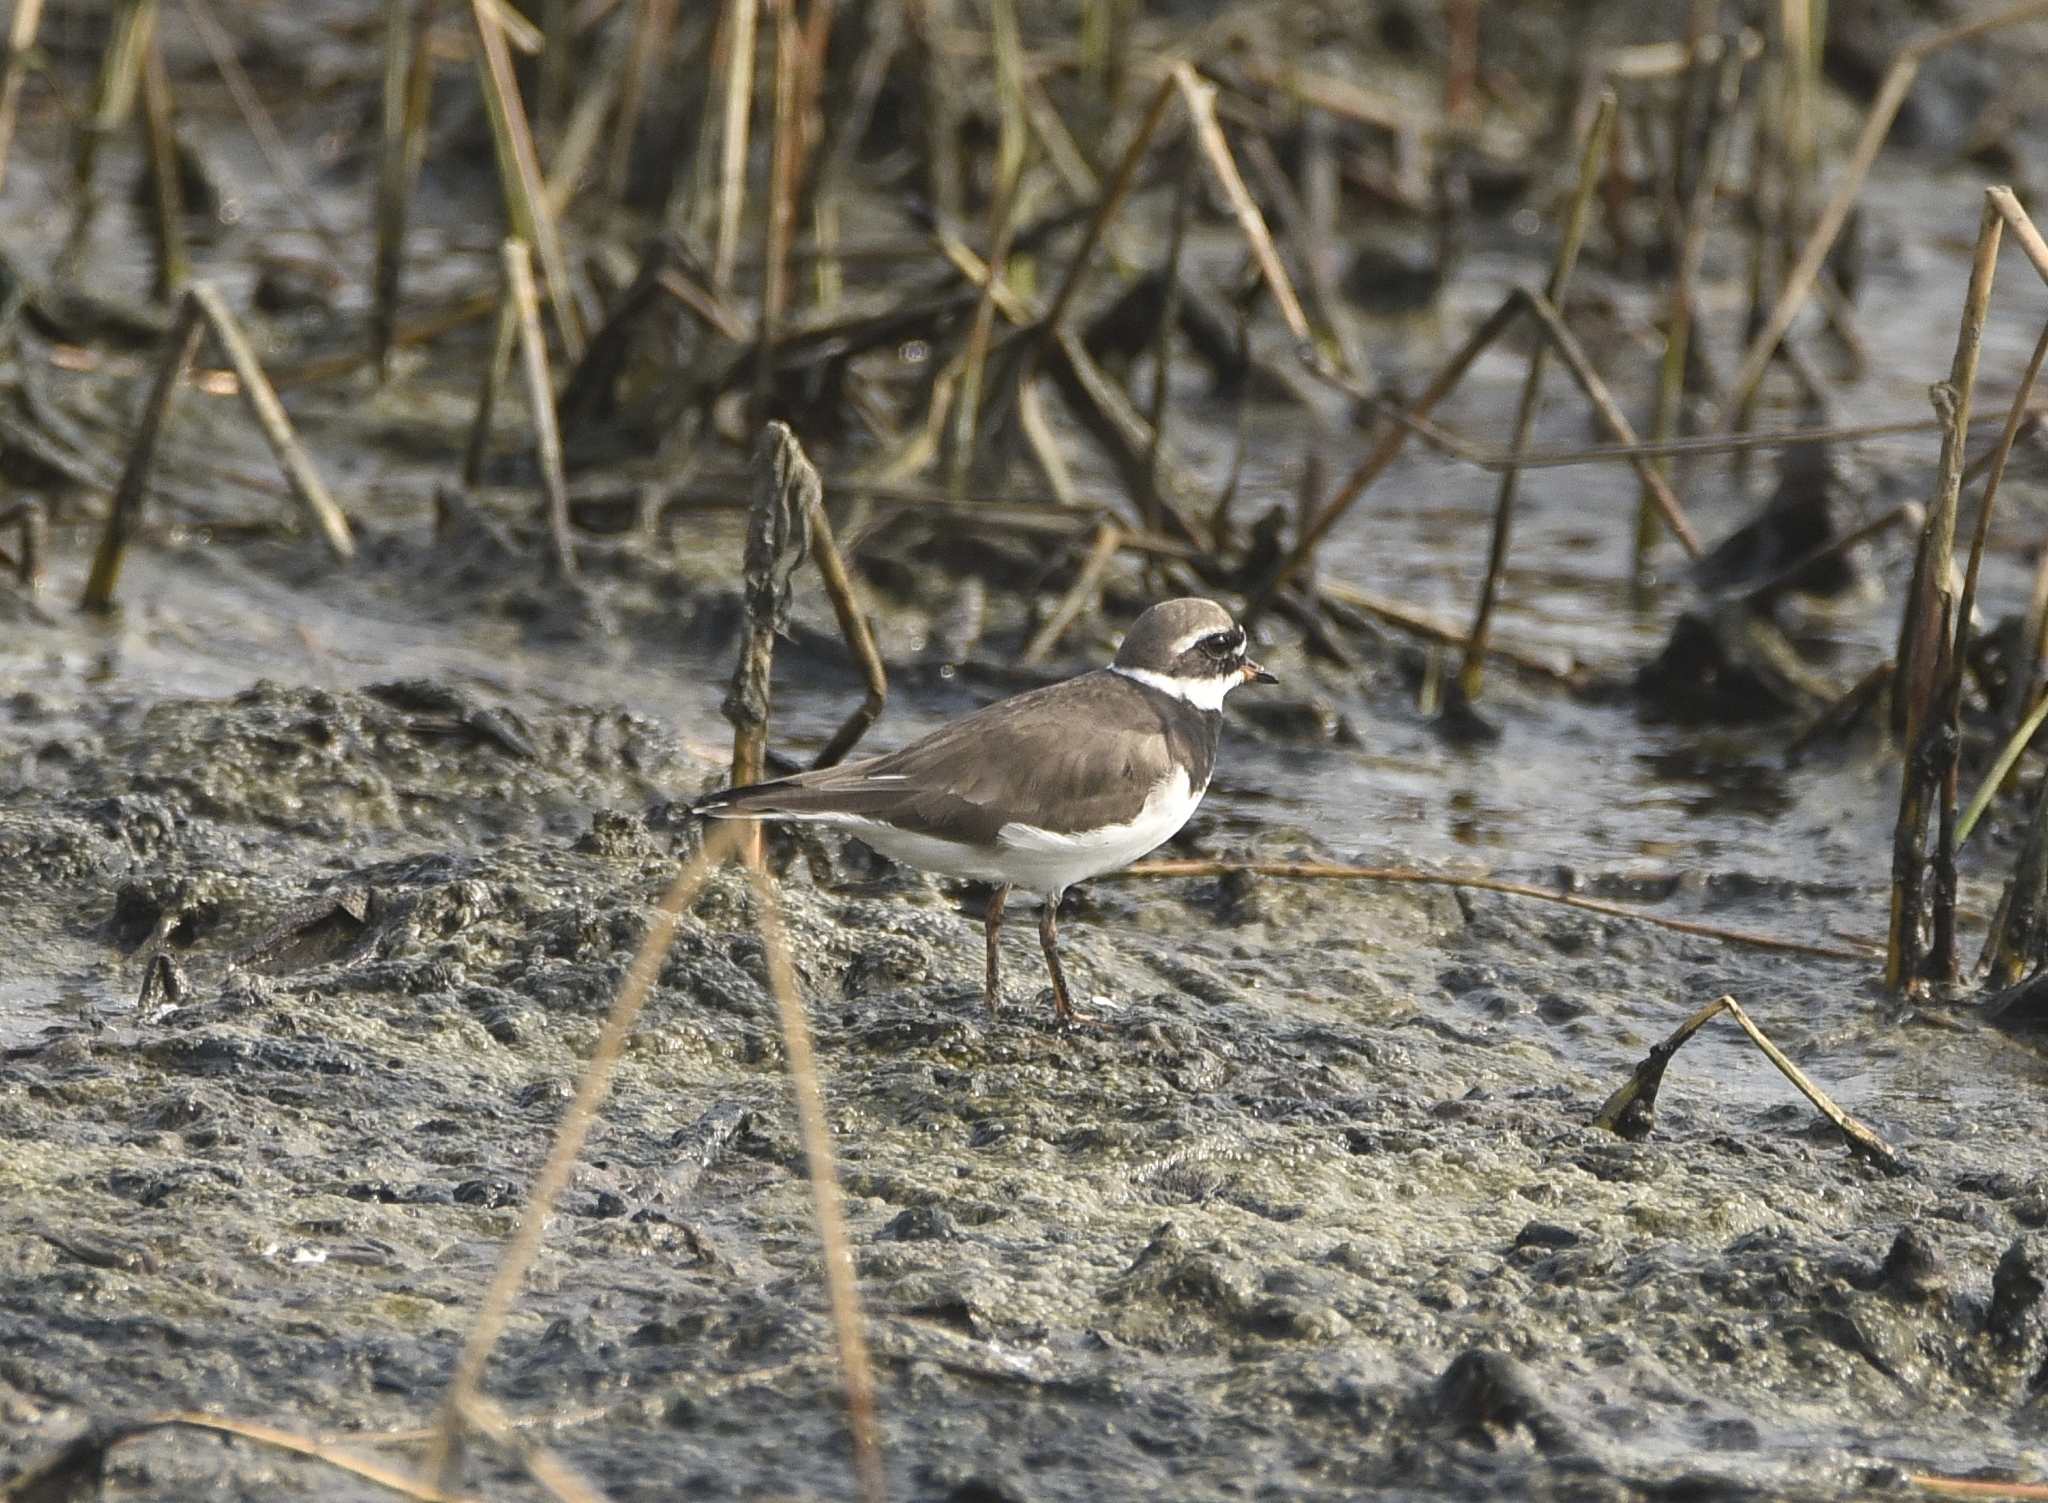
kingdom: Animalia
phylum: Chordata
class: Aves
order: Charadriiformes
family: Charadriidae
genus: Charadrius
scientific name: Charadrius hiaticula
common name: Common ringed plover
